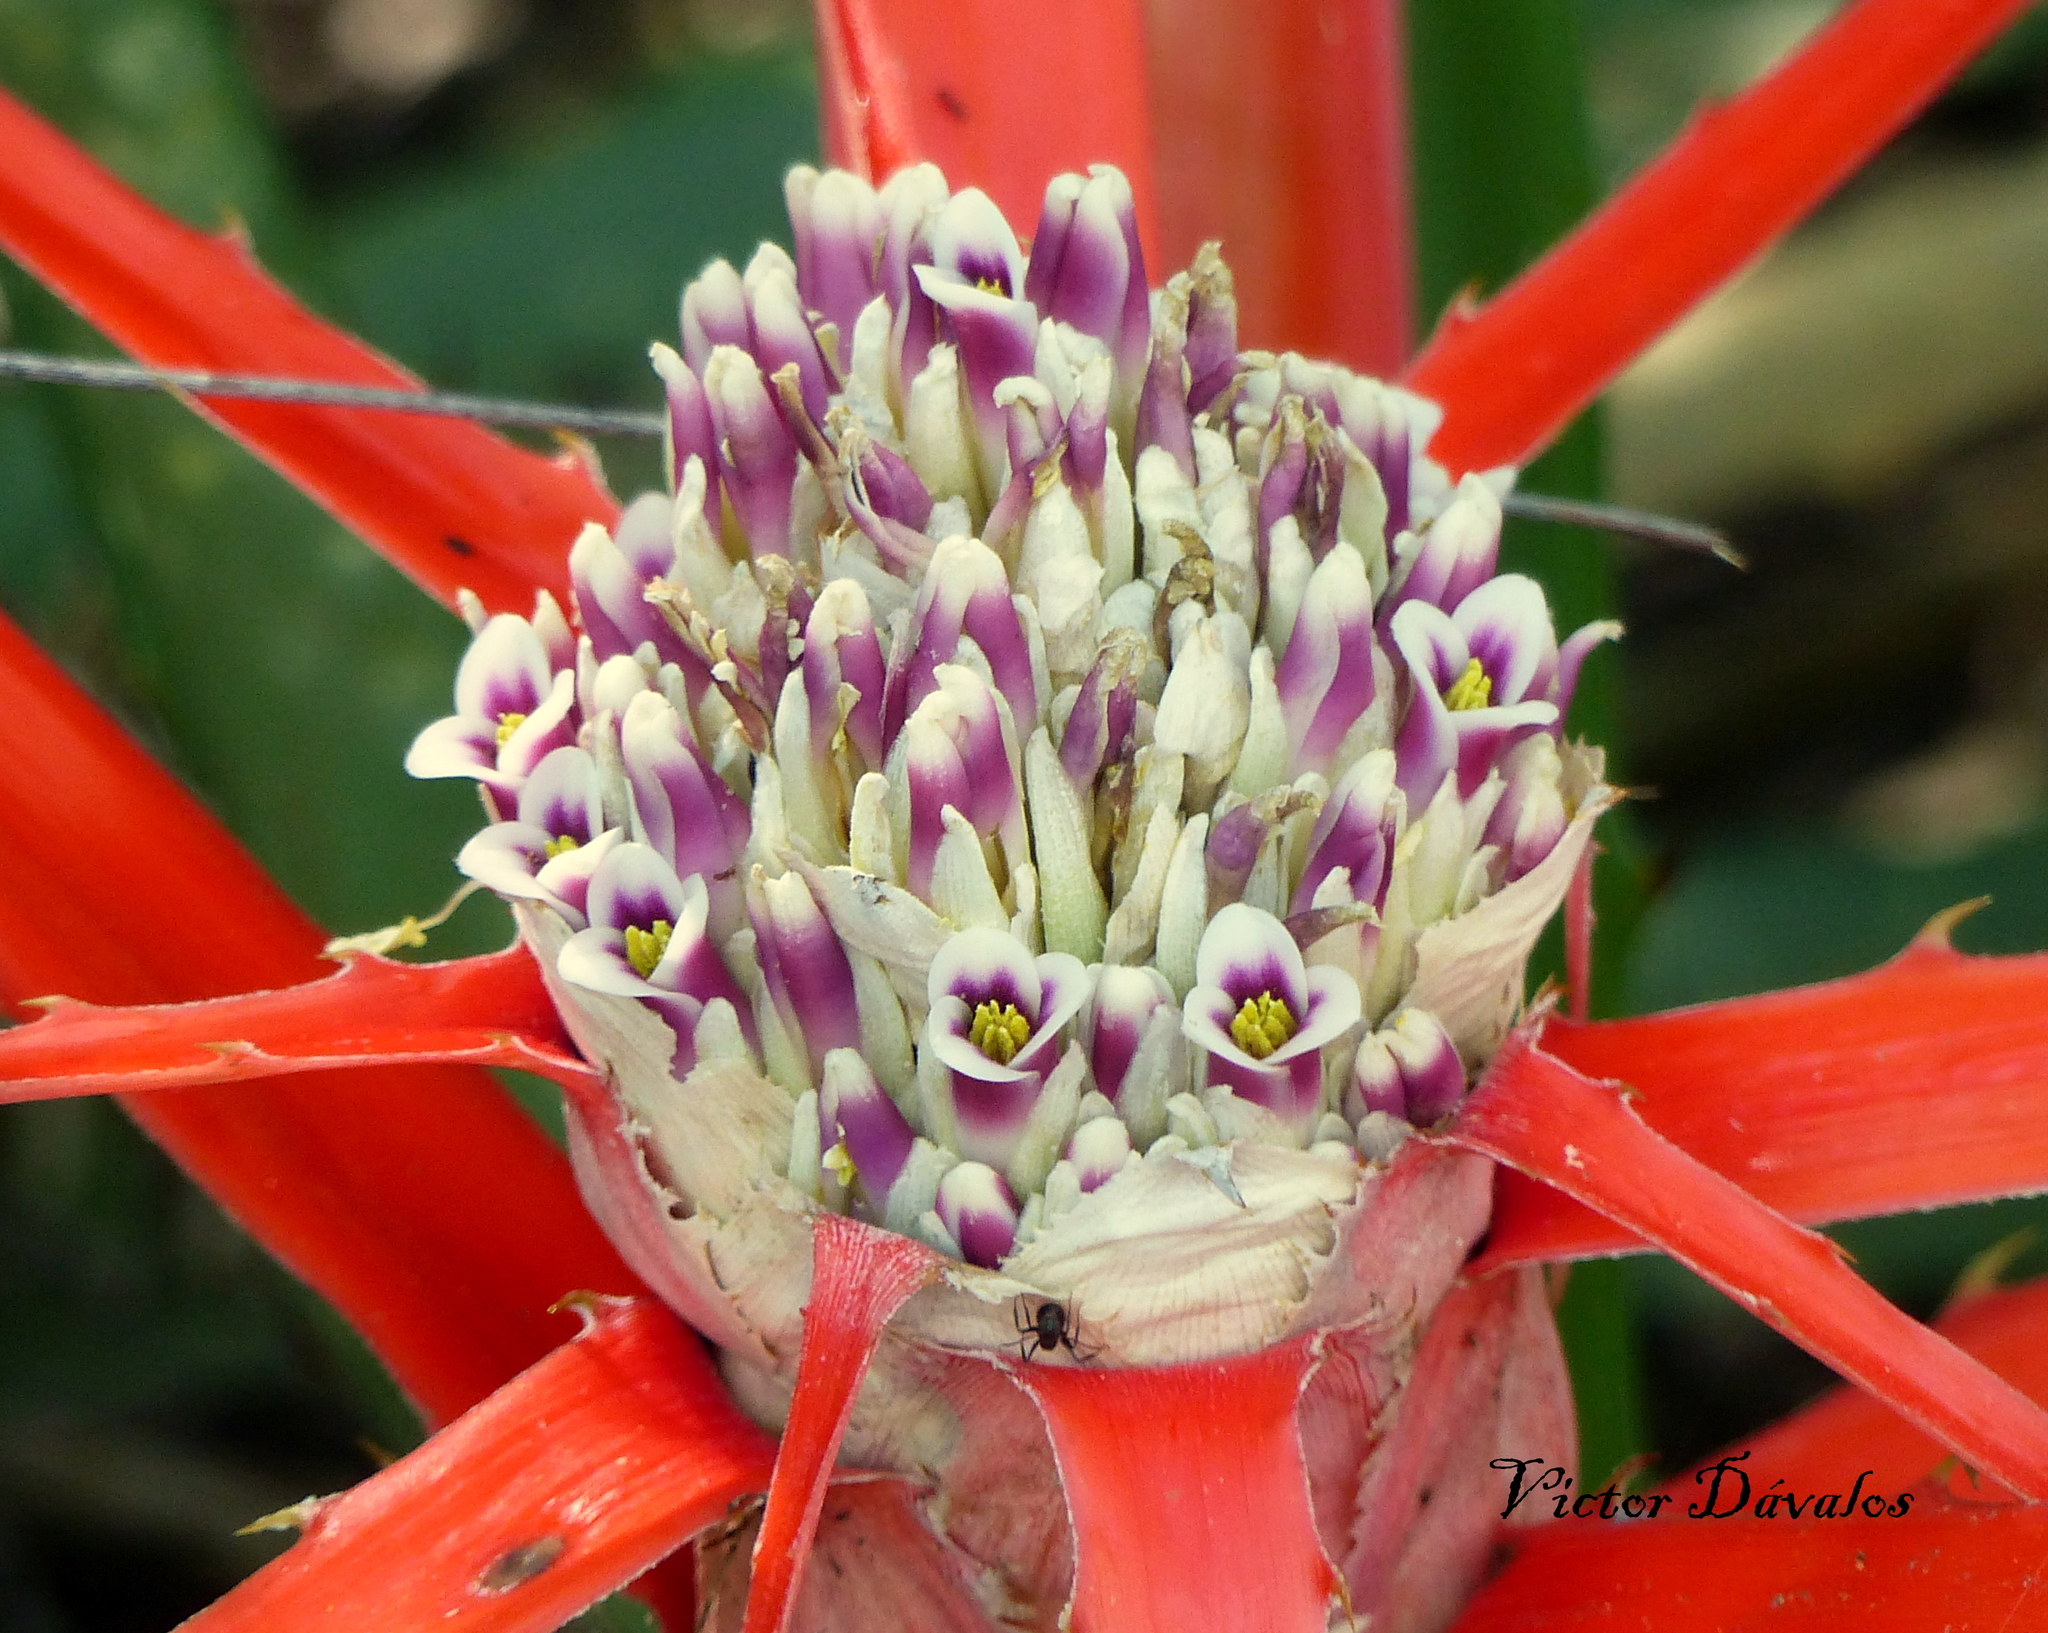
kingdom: Plantae
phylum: Tracheophyta
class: Liliopsida
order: Poales
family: Bromeliaceae
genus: Bromelia
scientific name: Bromelia serra
